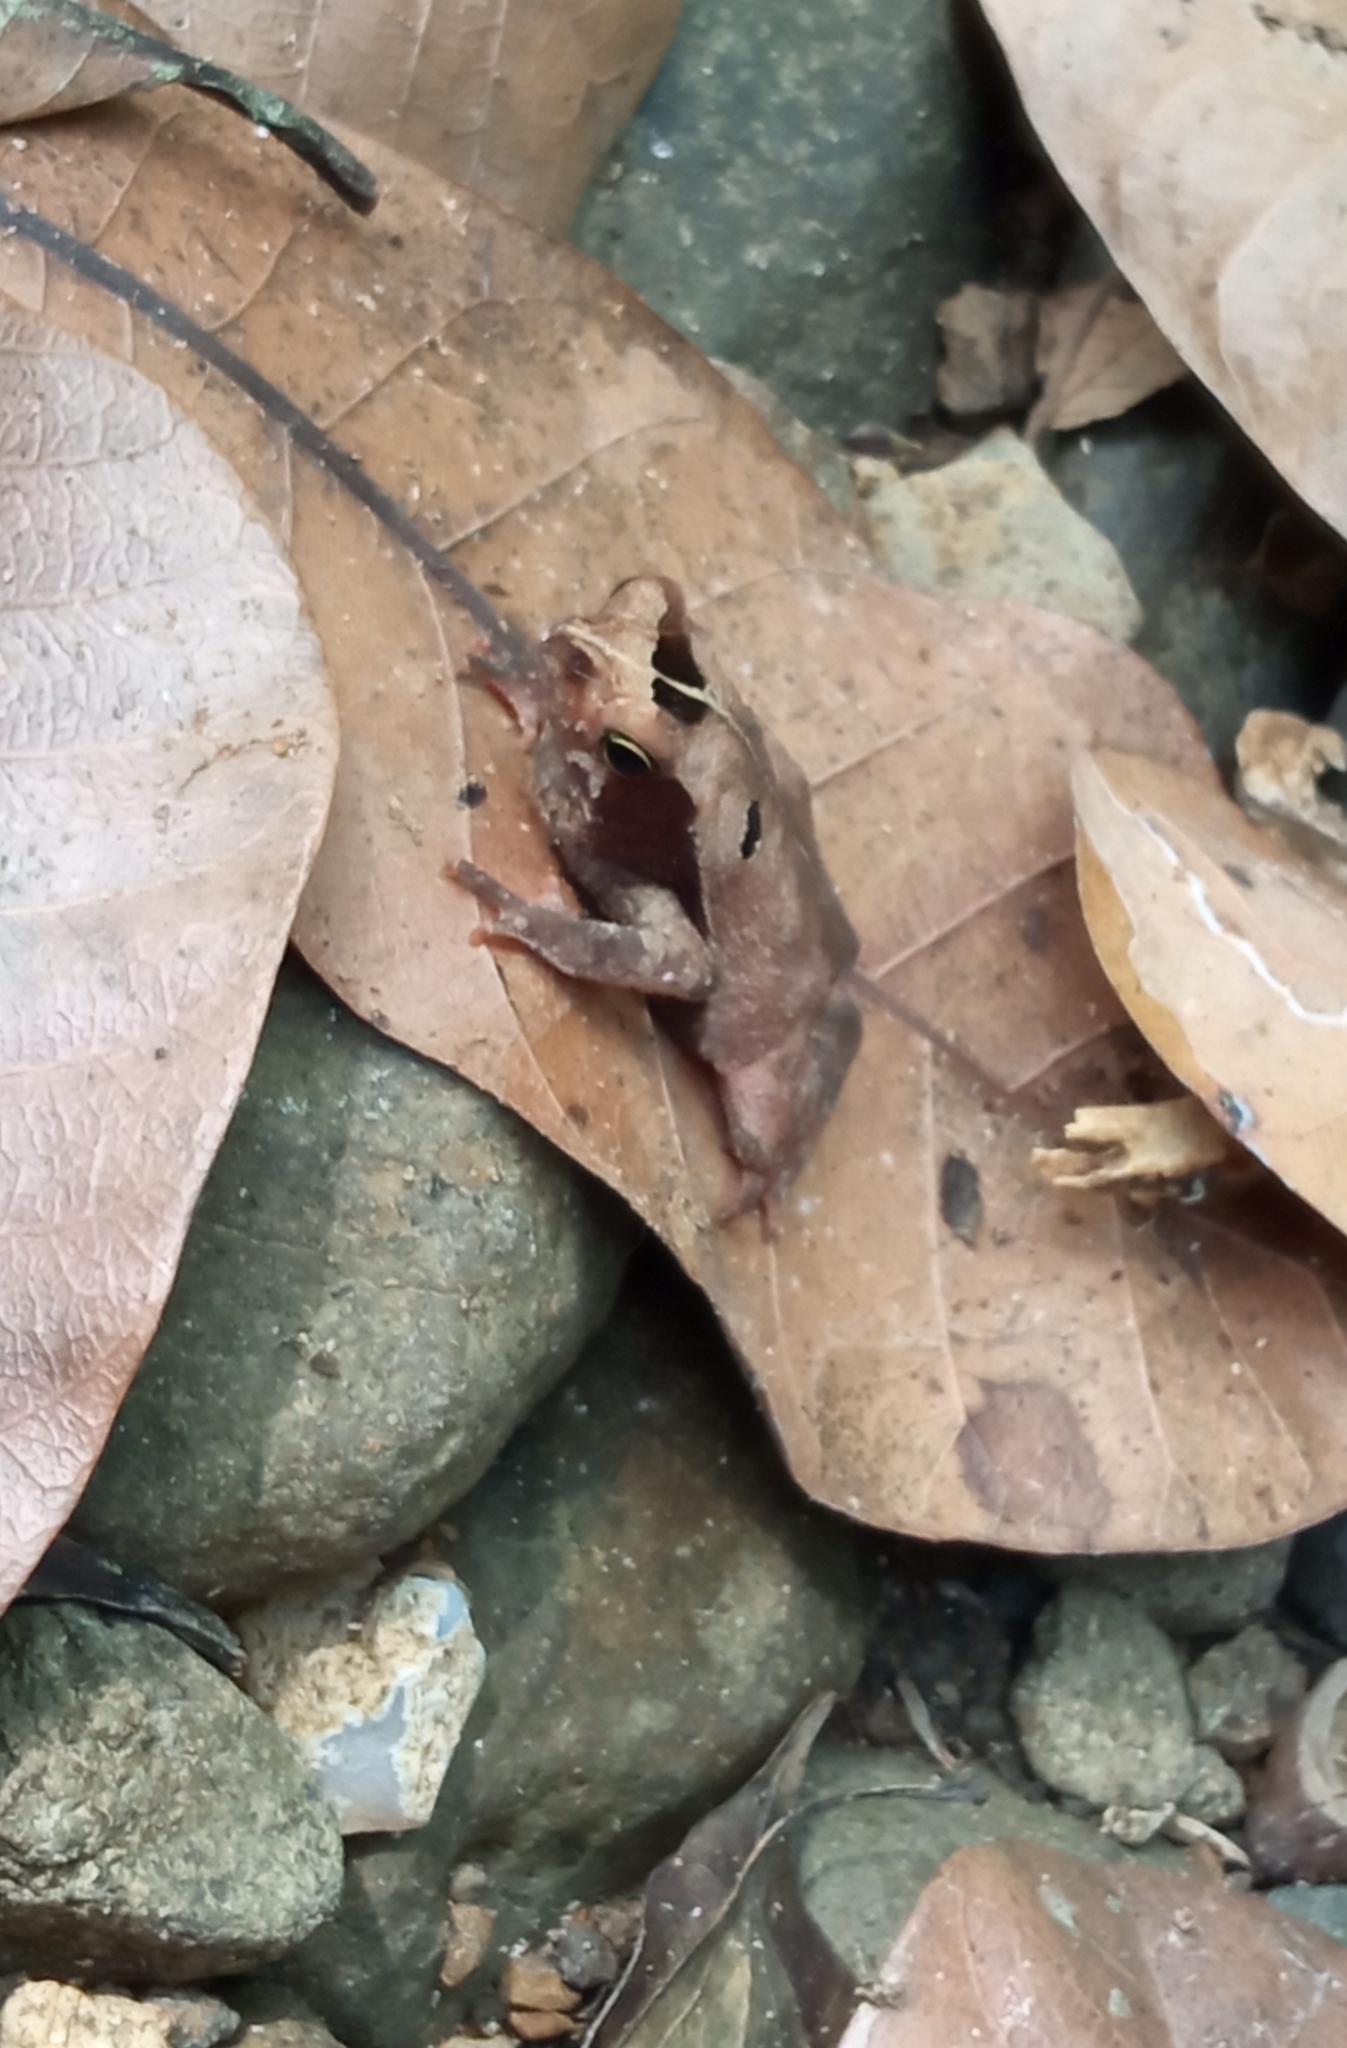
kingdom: Animalia
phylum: Chordata
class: Amphibia
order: Anura
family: Bufonidae
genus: Rhinella
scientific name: Rhinella alata
